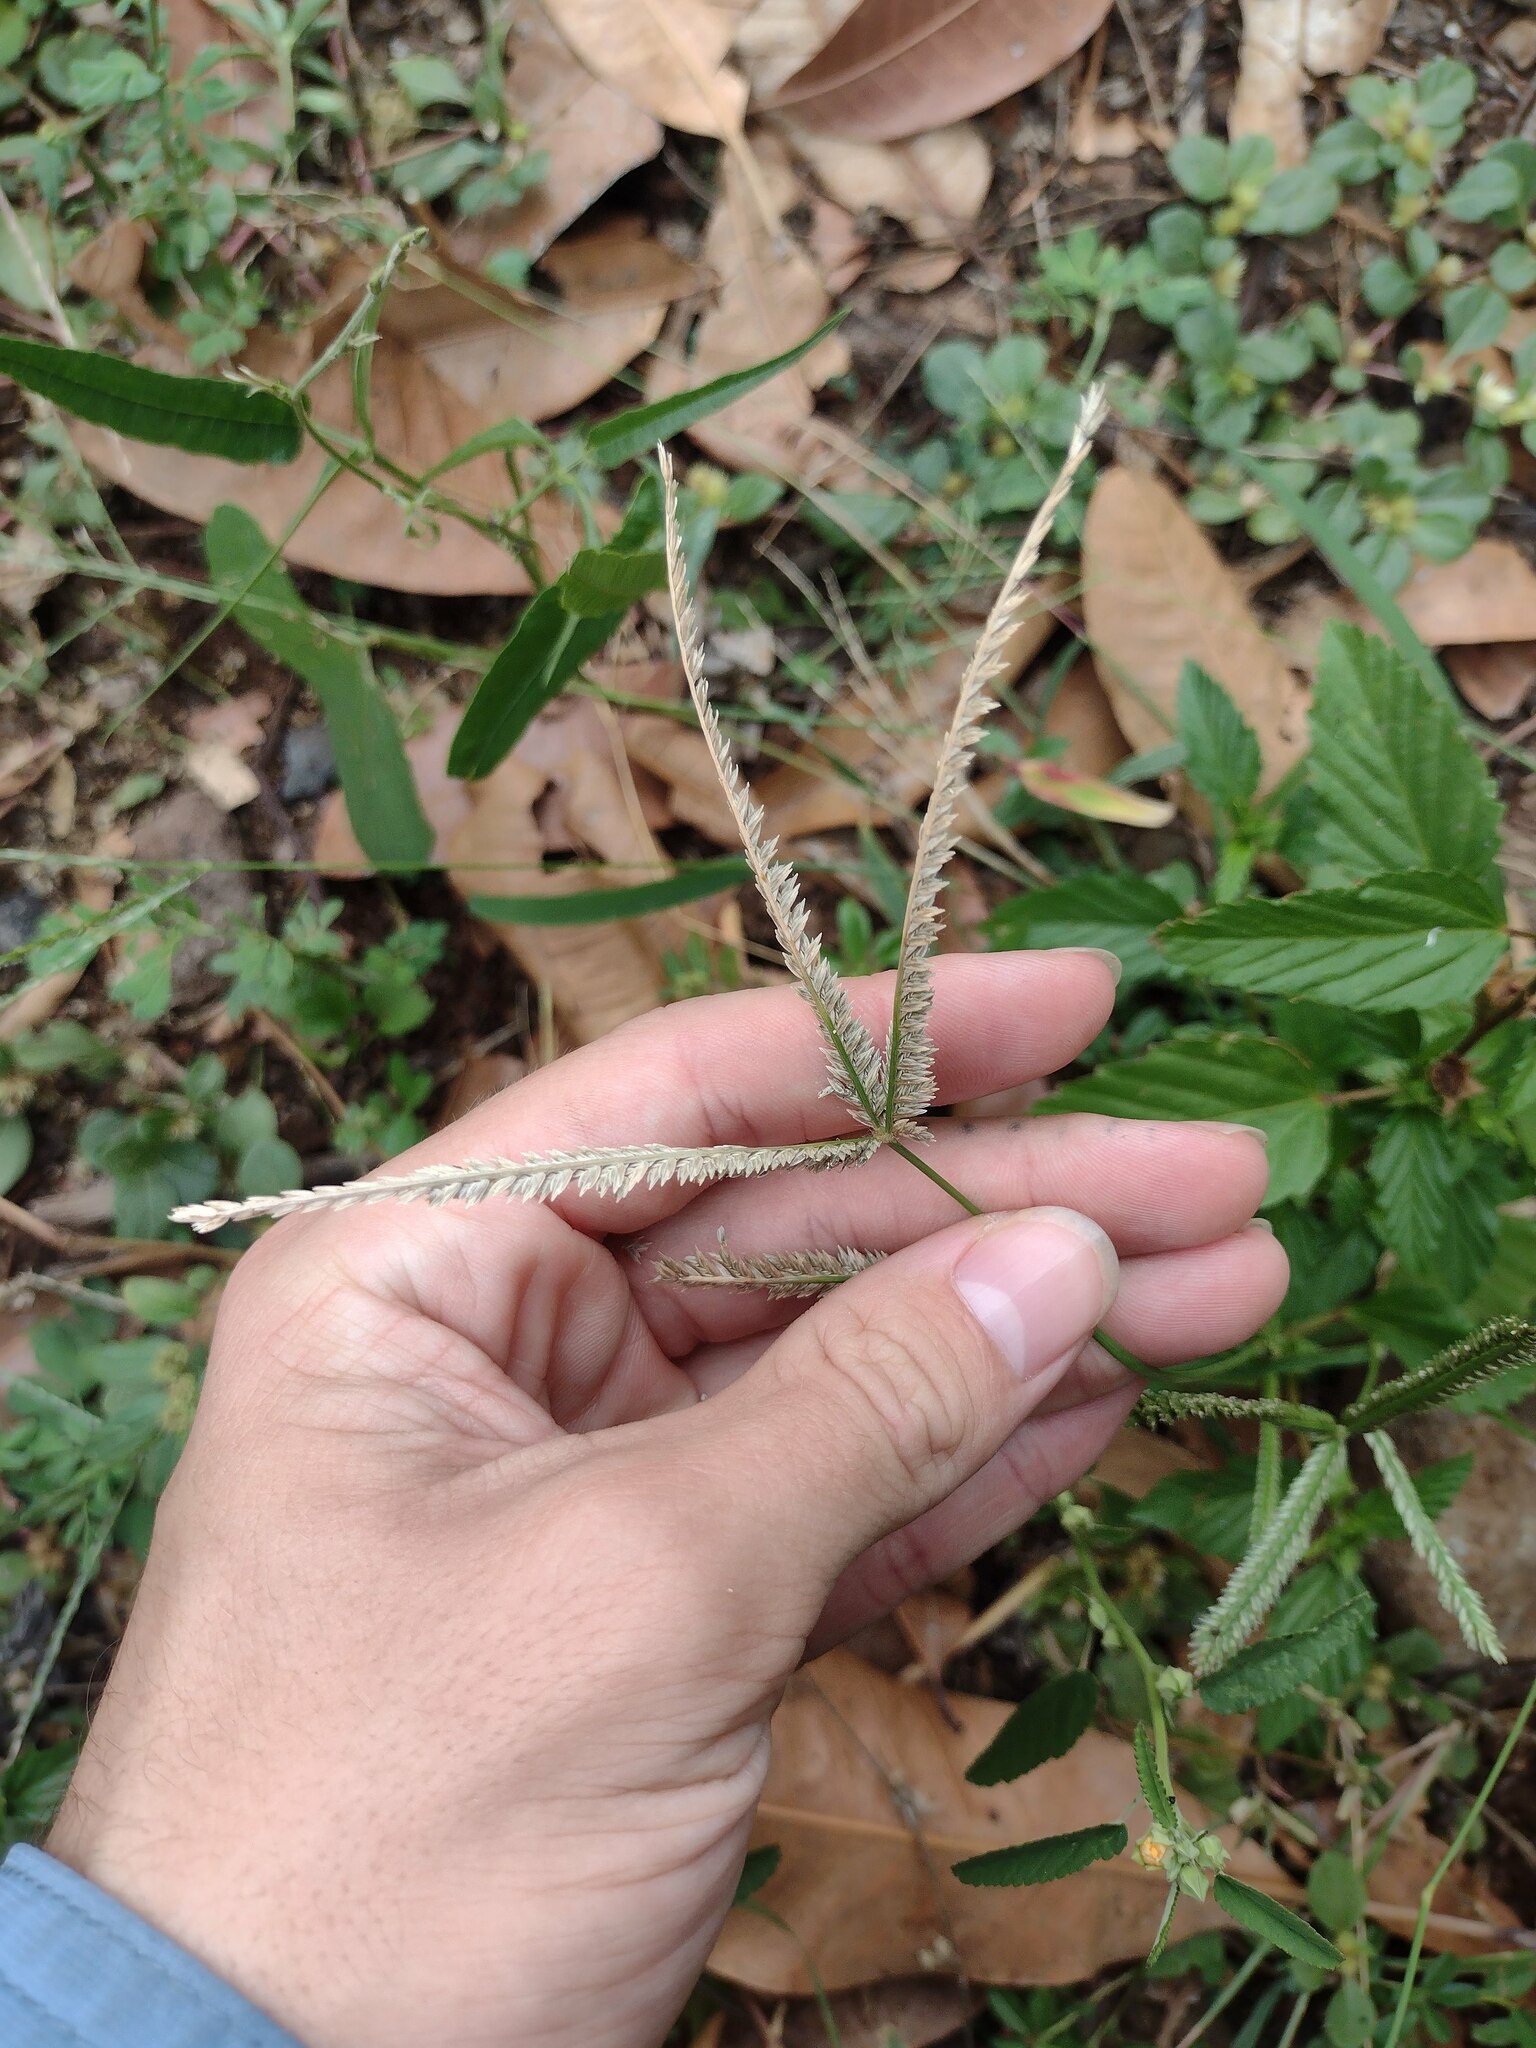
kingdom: Plantae
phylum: Tracheophyta
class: Liliopsida
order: Poales
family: Poaceae
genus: Eleusine
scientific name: Eleusine indica
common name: Yard-grass
